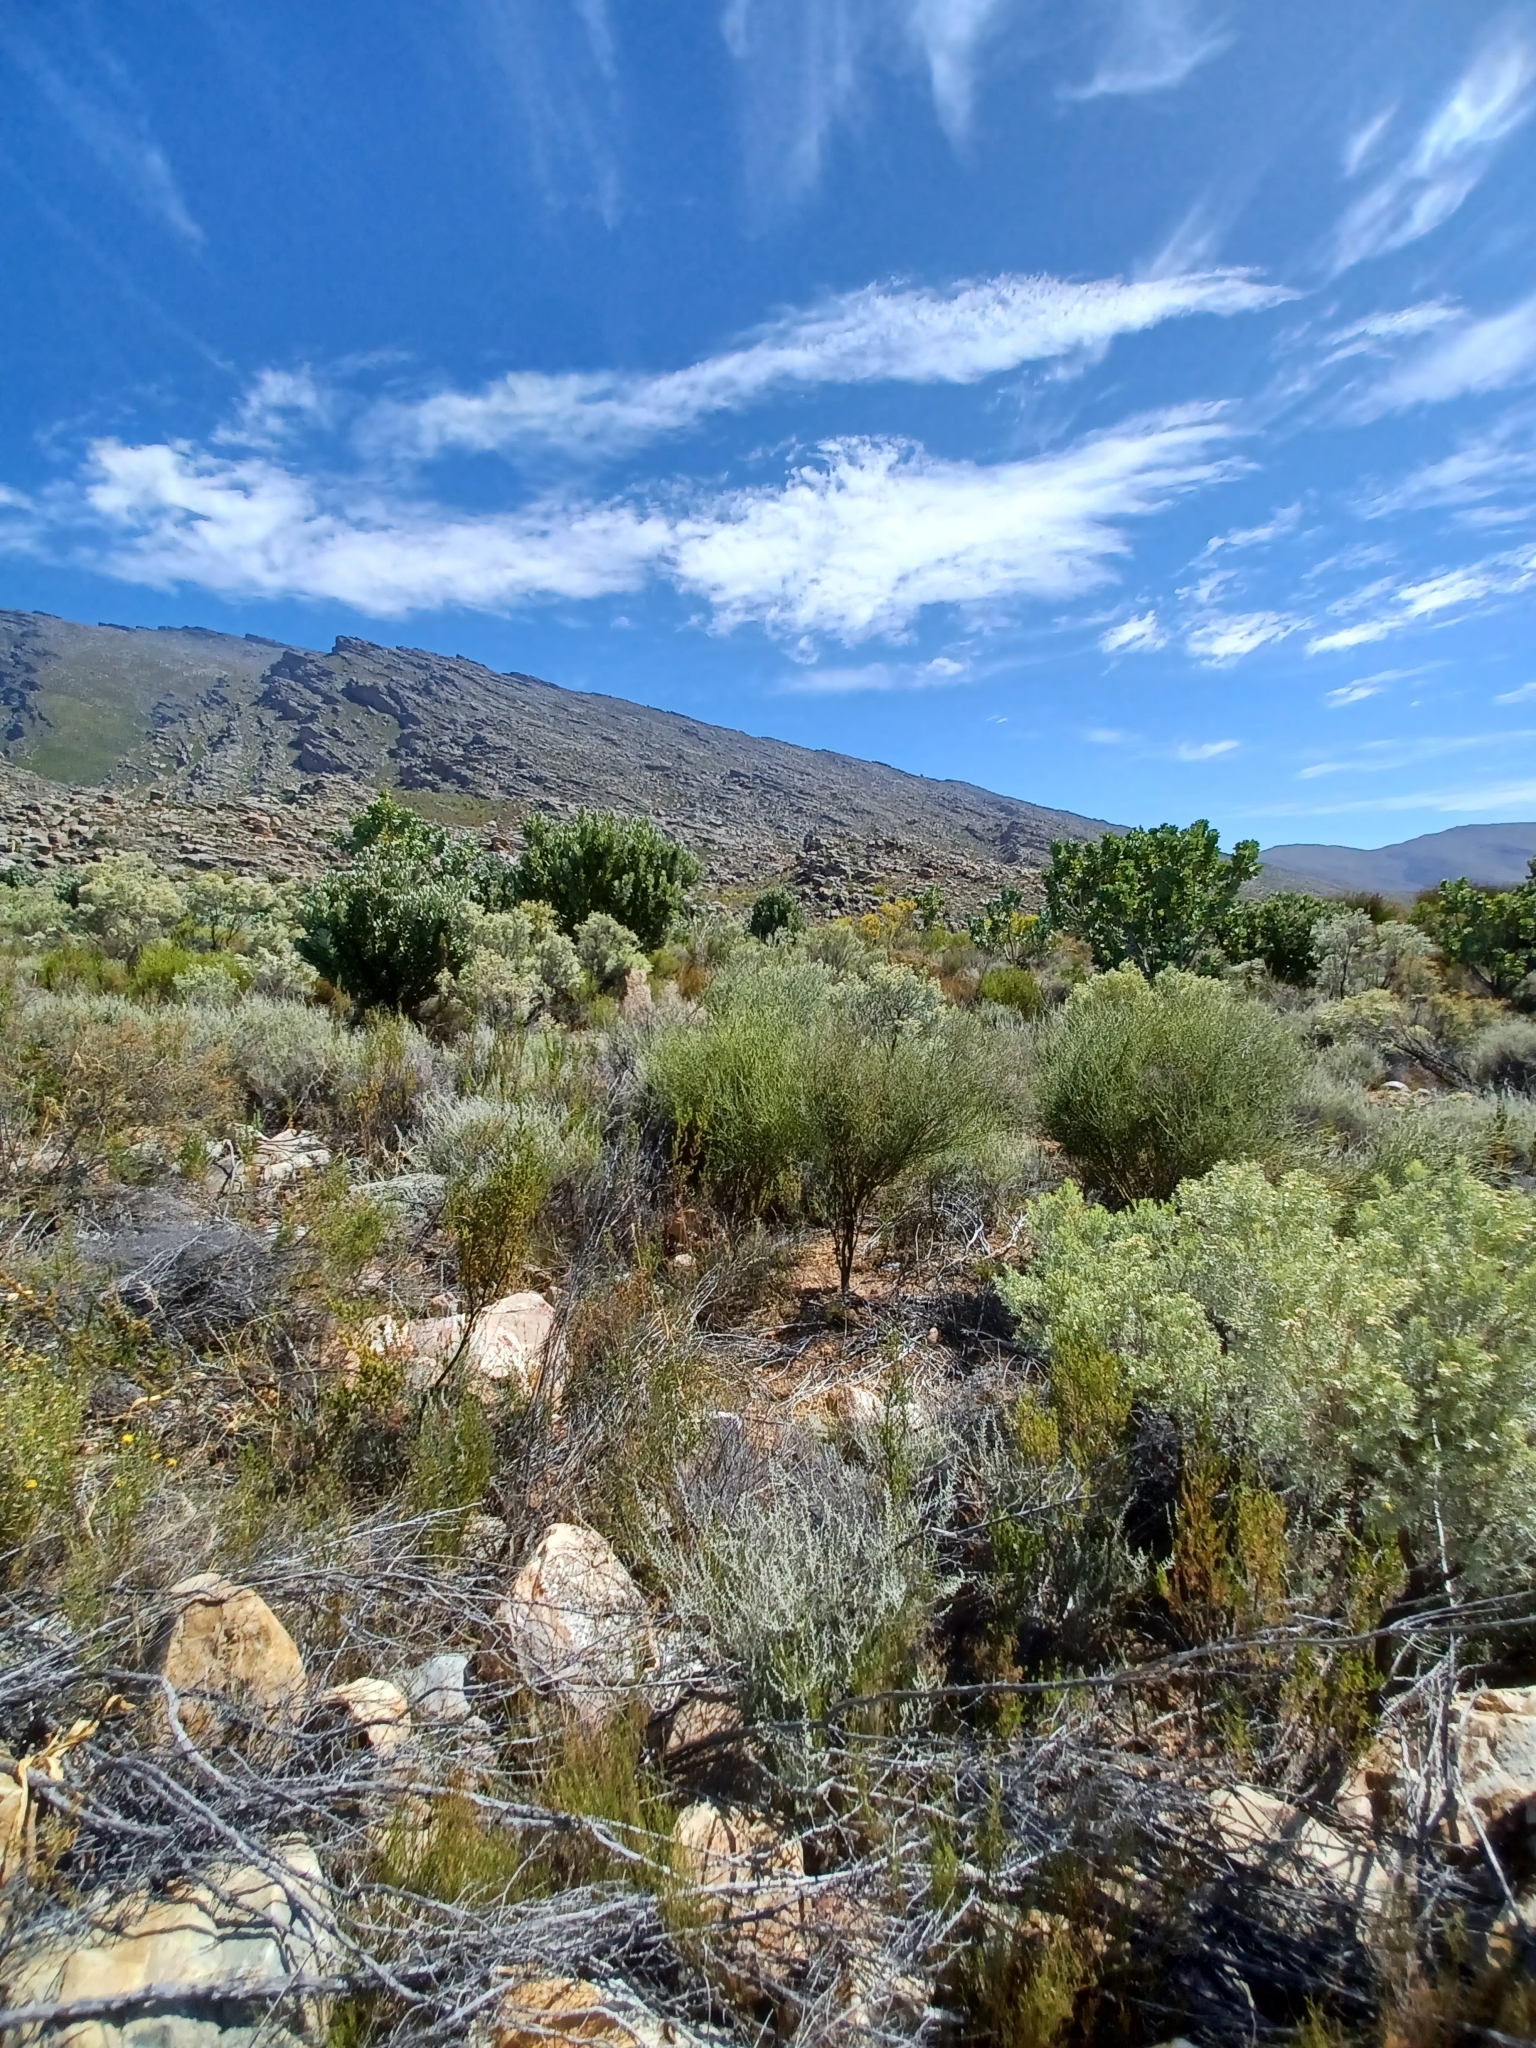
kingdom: Plantae
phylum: Tracheophyta
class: Magnoliopsida
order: Fabales
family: Fabaceae
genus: Aspalathus
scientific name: Aspalathus rugosa
